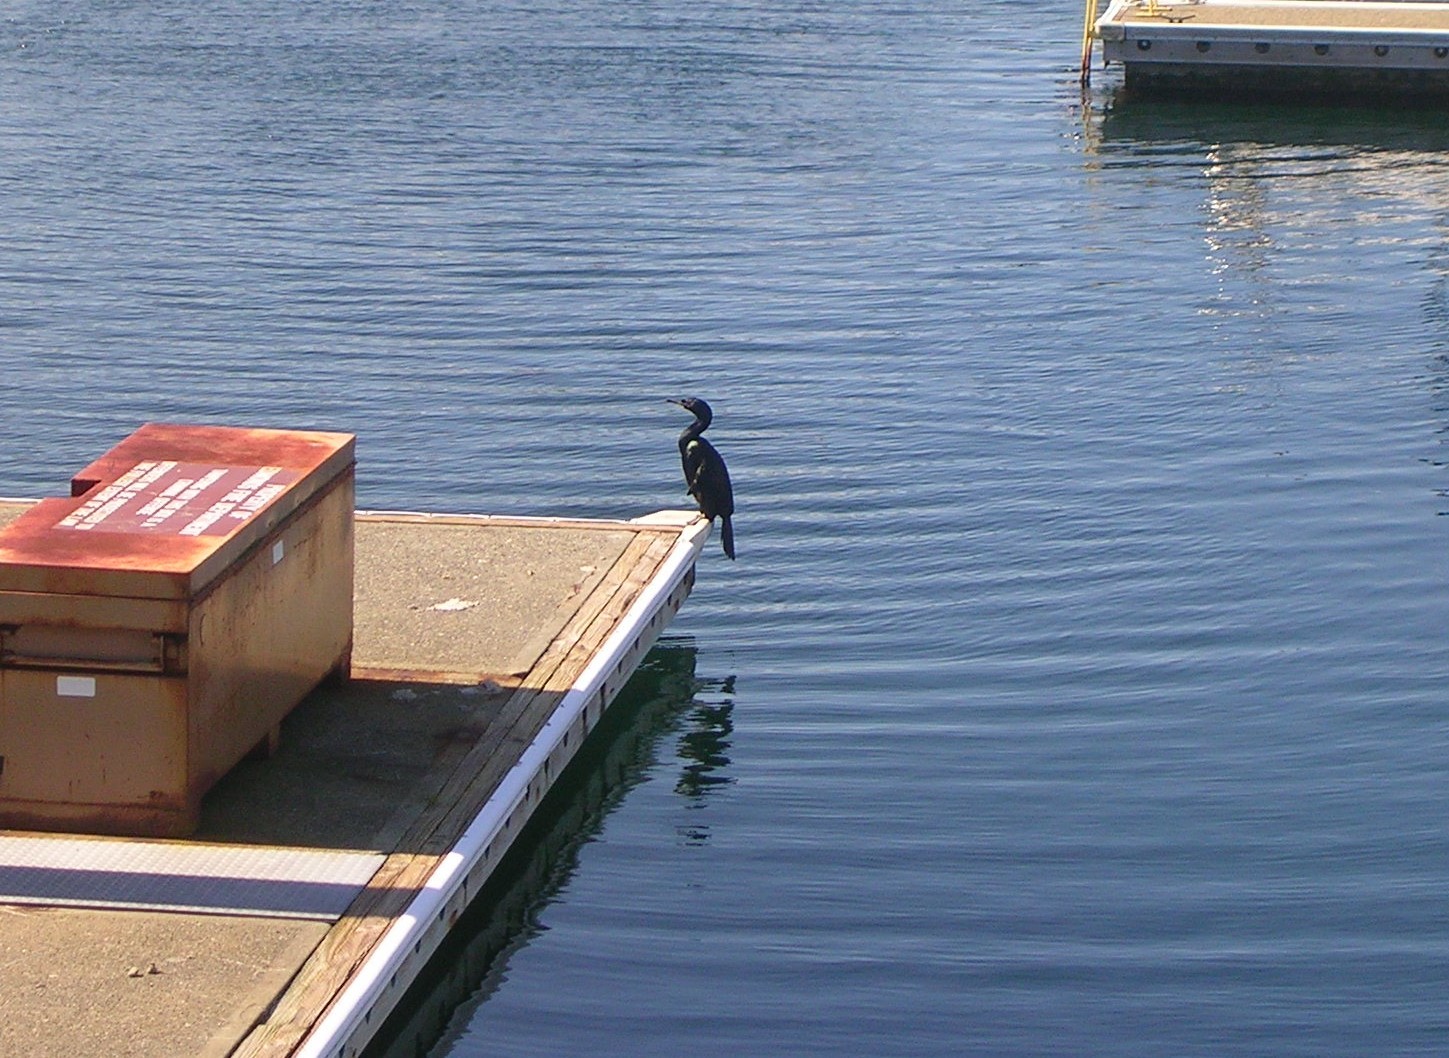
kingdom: Animalia
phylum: Chordata
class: Aves
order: Suliformes
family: Phalacrocoracidae
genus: Phalacrocorax
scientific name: Phalacrocorax pelagicus
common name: Pelagic cormorant
